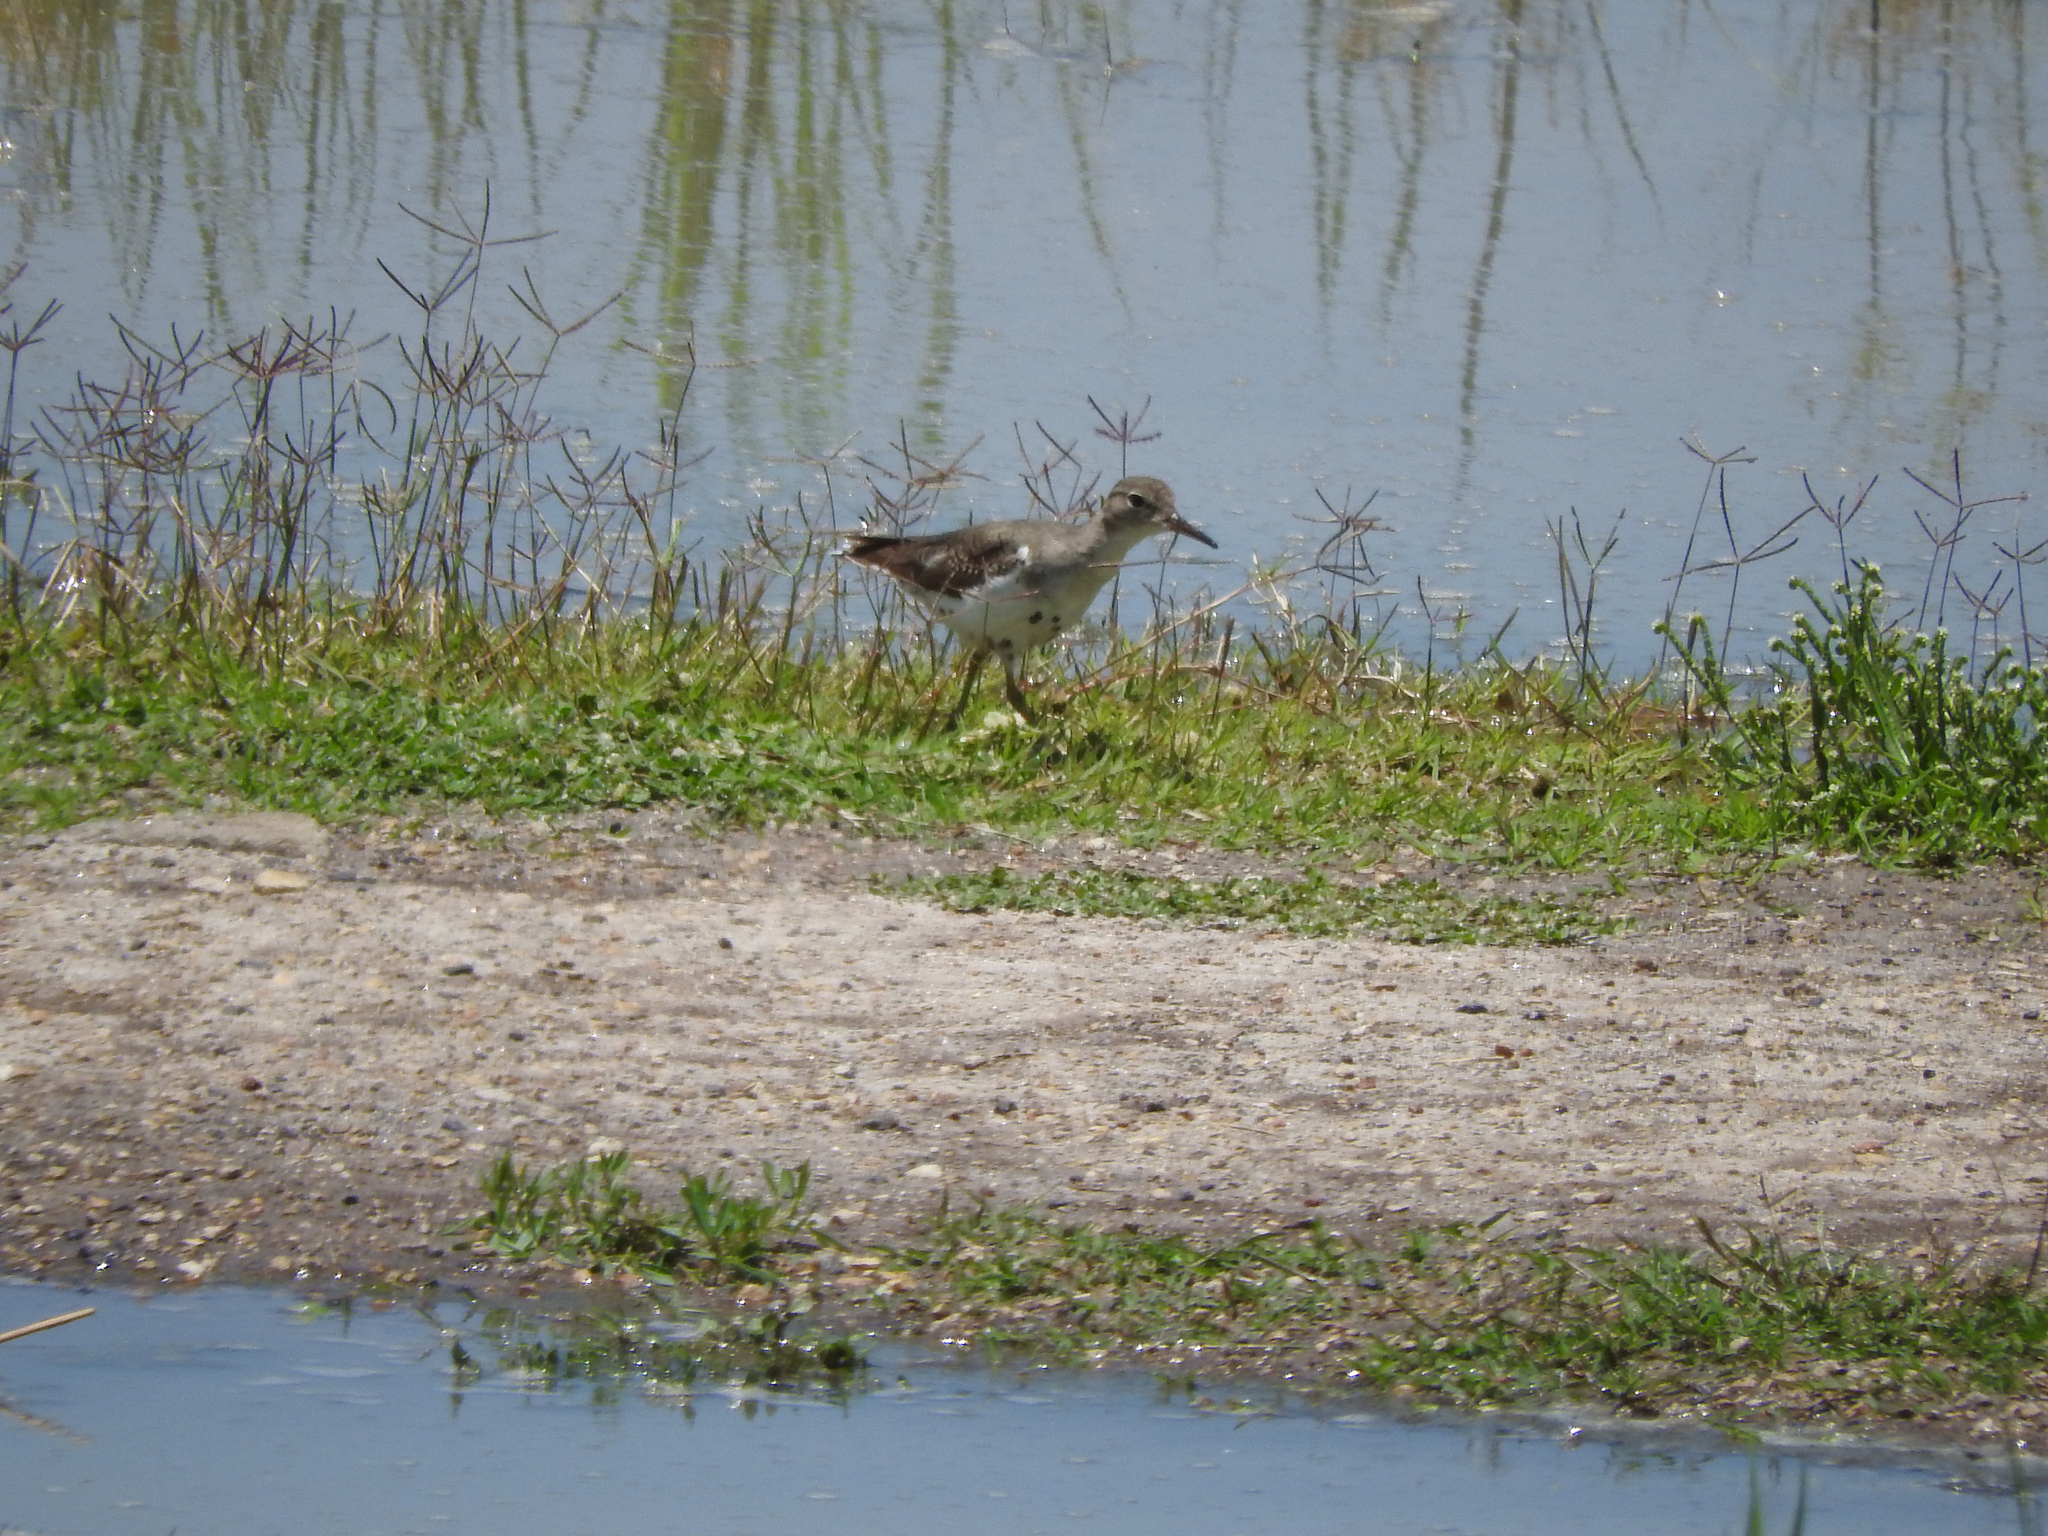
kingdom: Animalia
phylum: Chordata
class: Aves
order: Charadriiformes
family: Scolopacidae
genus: Actitis
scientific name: Actitis macularius
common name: Spotted sandpiper
